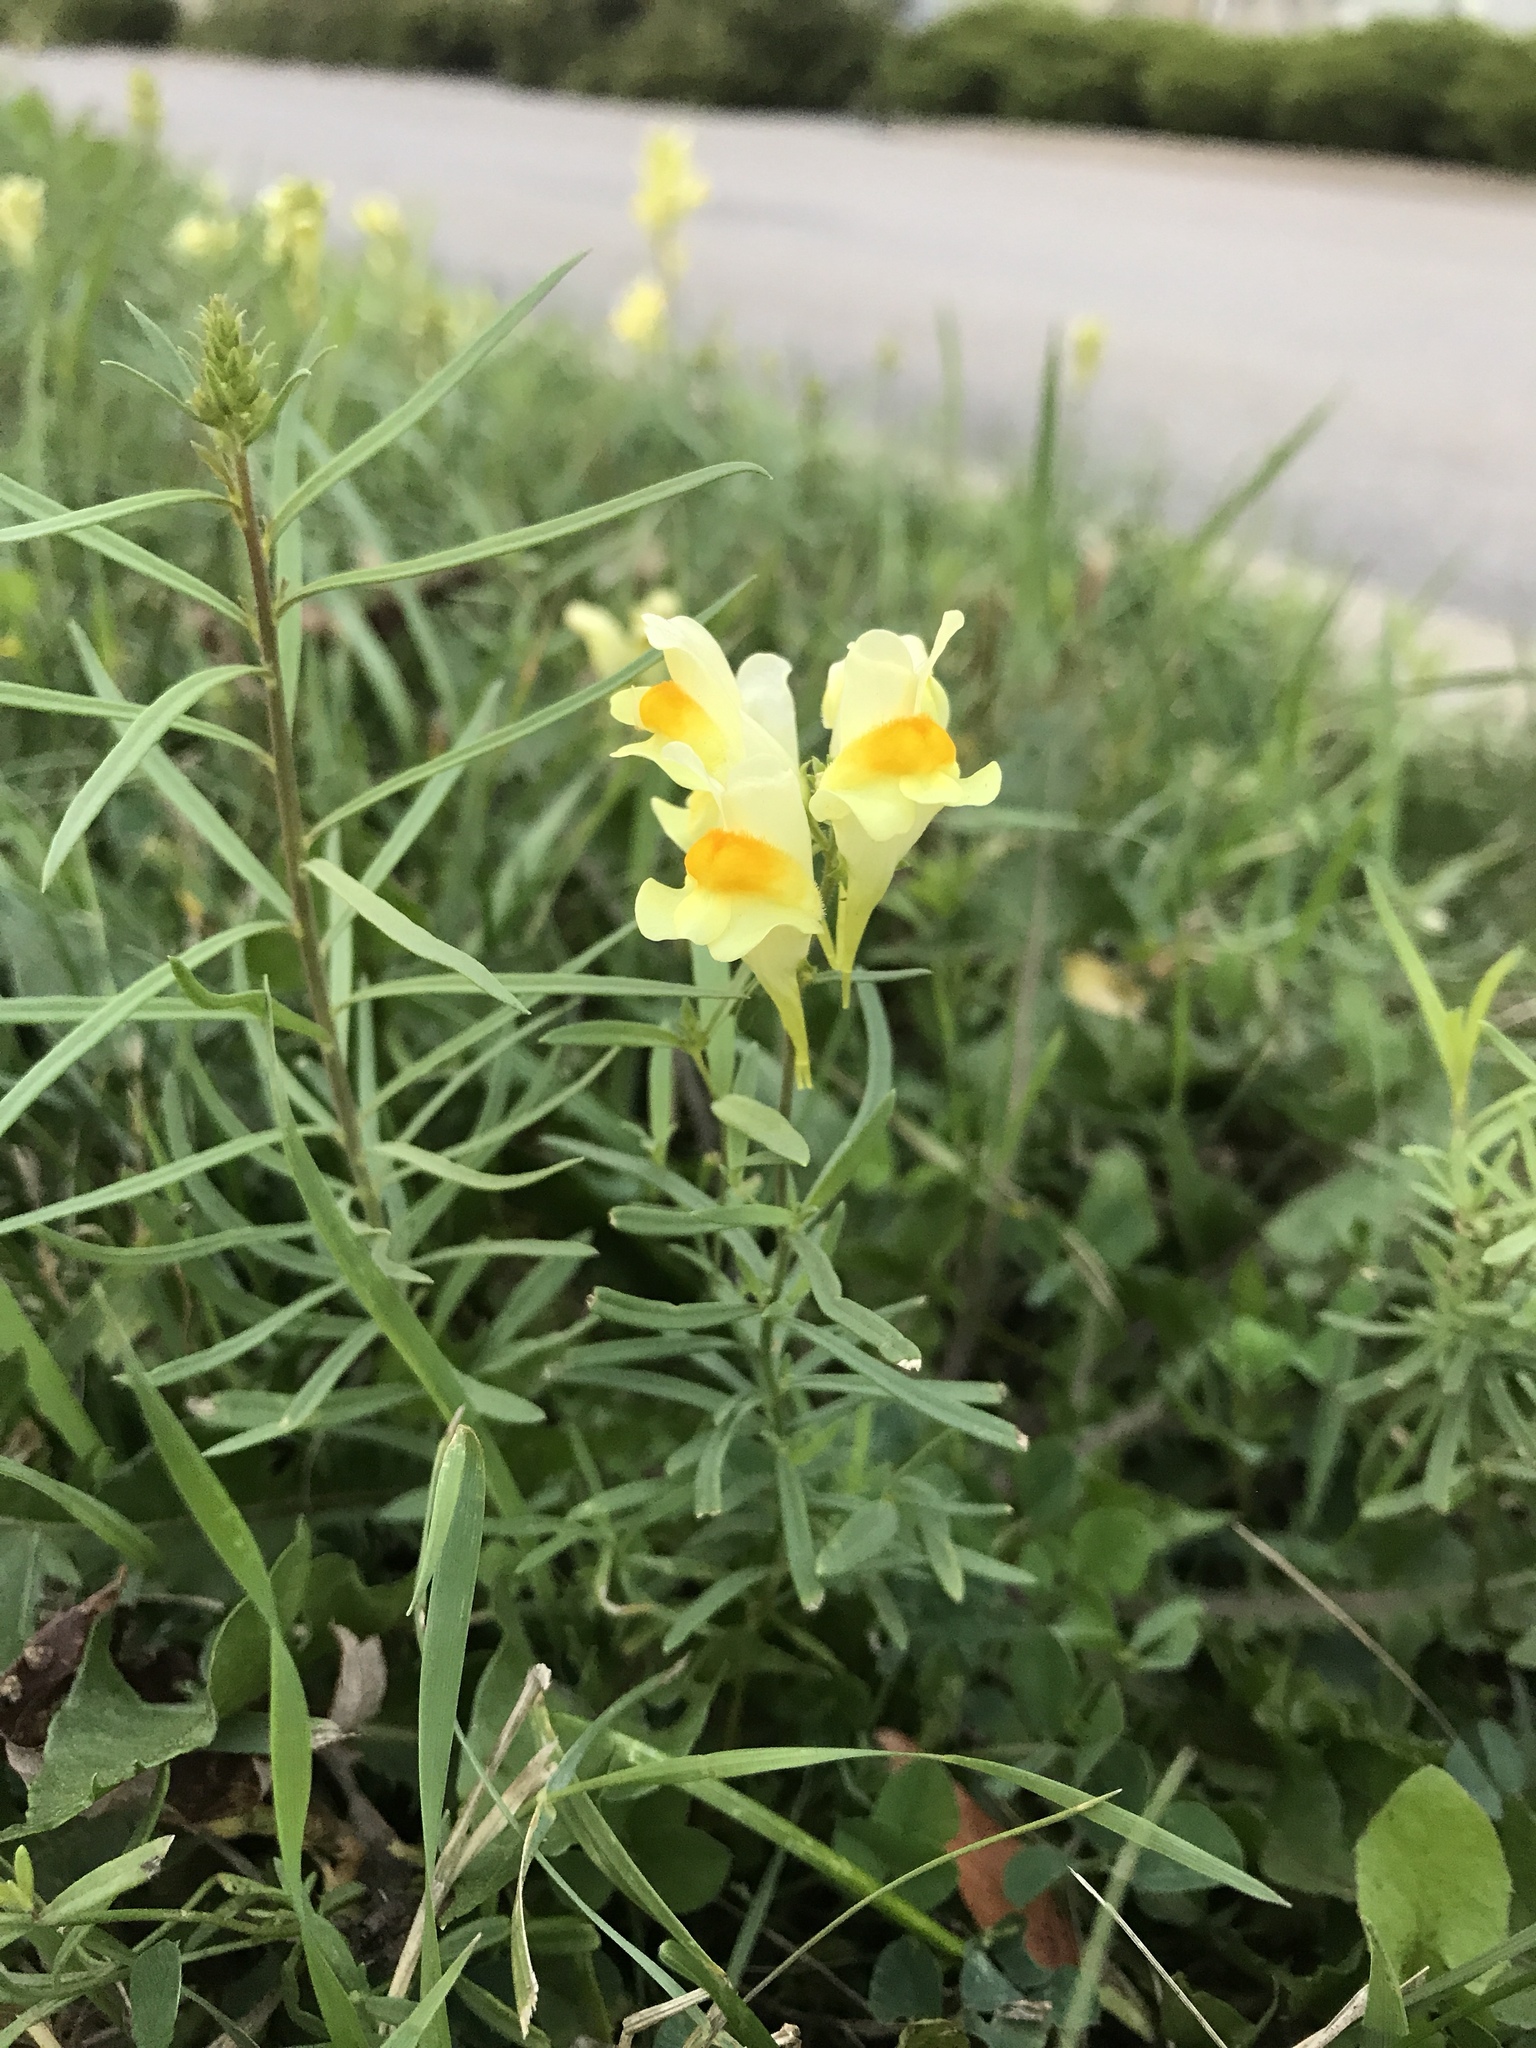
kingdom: Plantae
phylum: Tracheophyta
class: Magnoliopsida
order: Lamiales
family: Plantaginaceae
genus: Linaria
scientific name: Linaria vulgaris
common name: Butter and eggs
